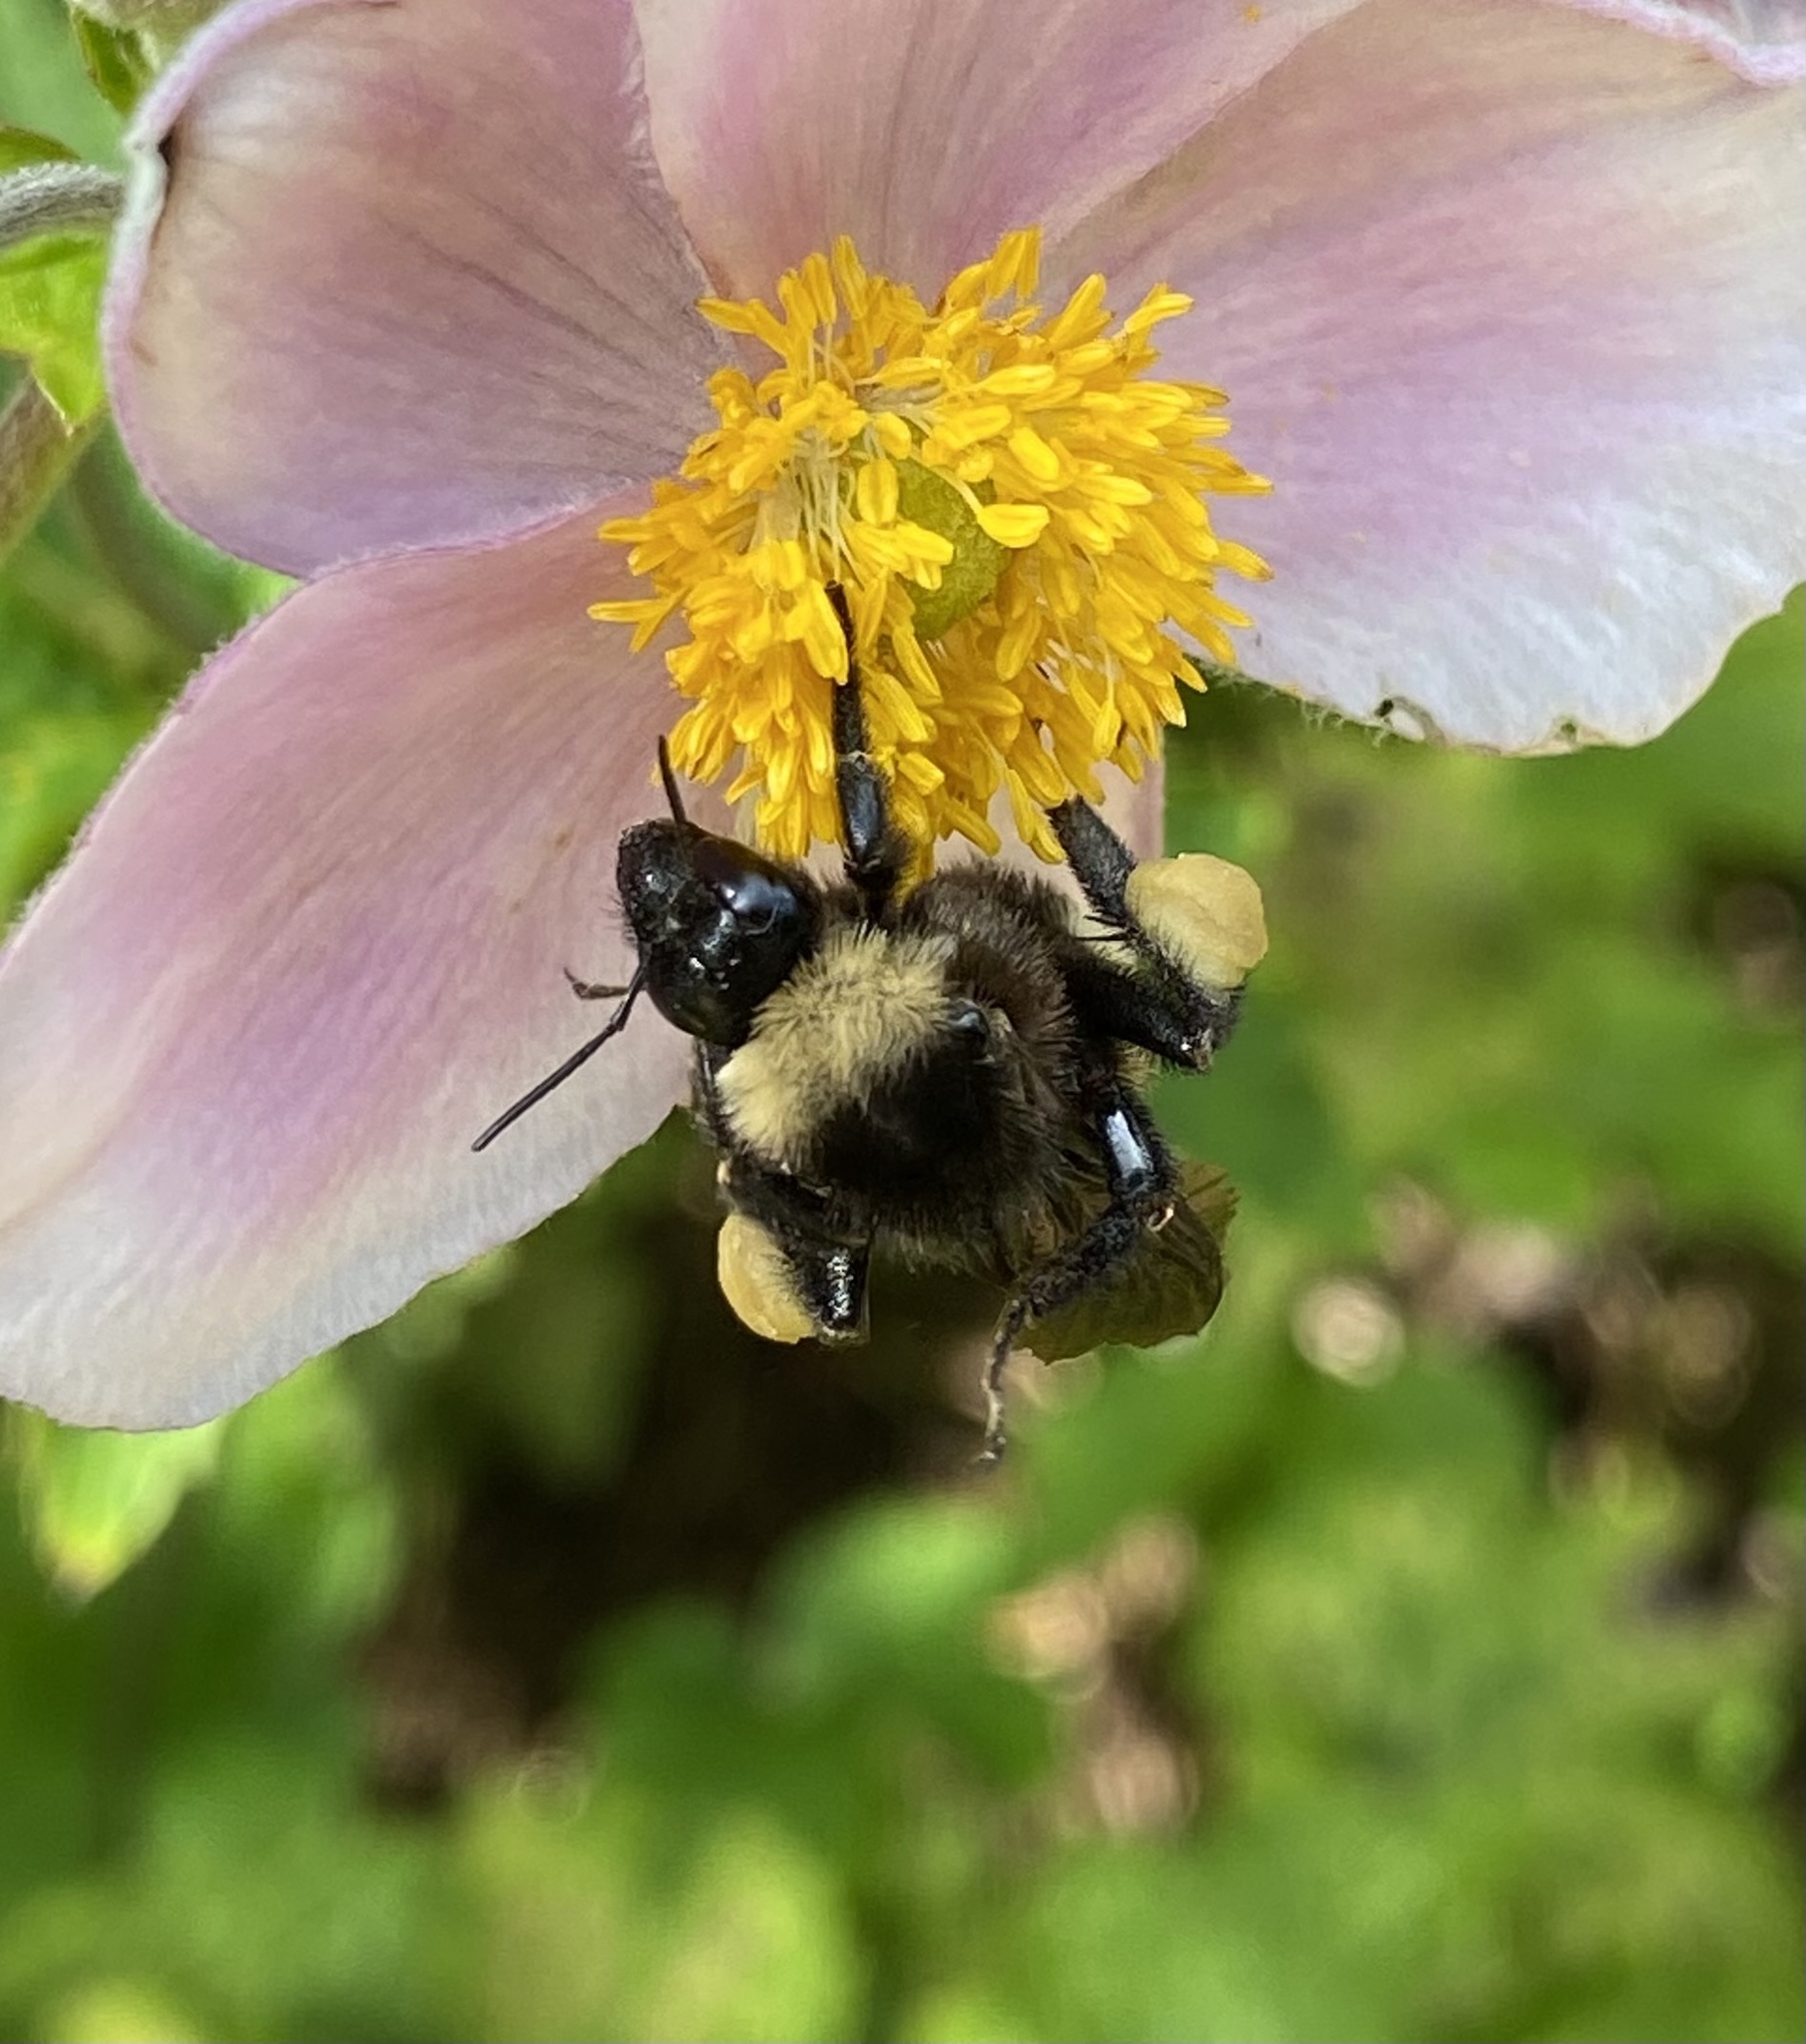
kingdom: Animalia
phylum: Arthropoda
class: Insecta
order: Hymenoptera
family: Apidae
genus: Bombus
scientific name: Bombus pensylvanicus
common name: Bumble bee
